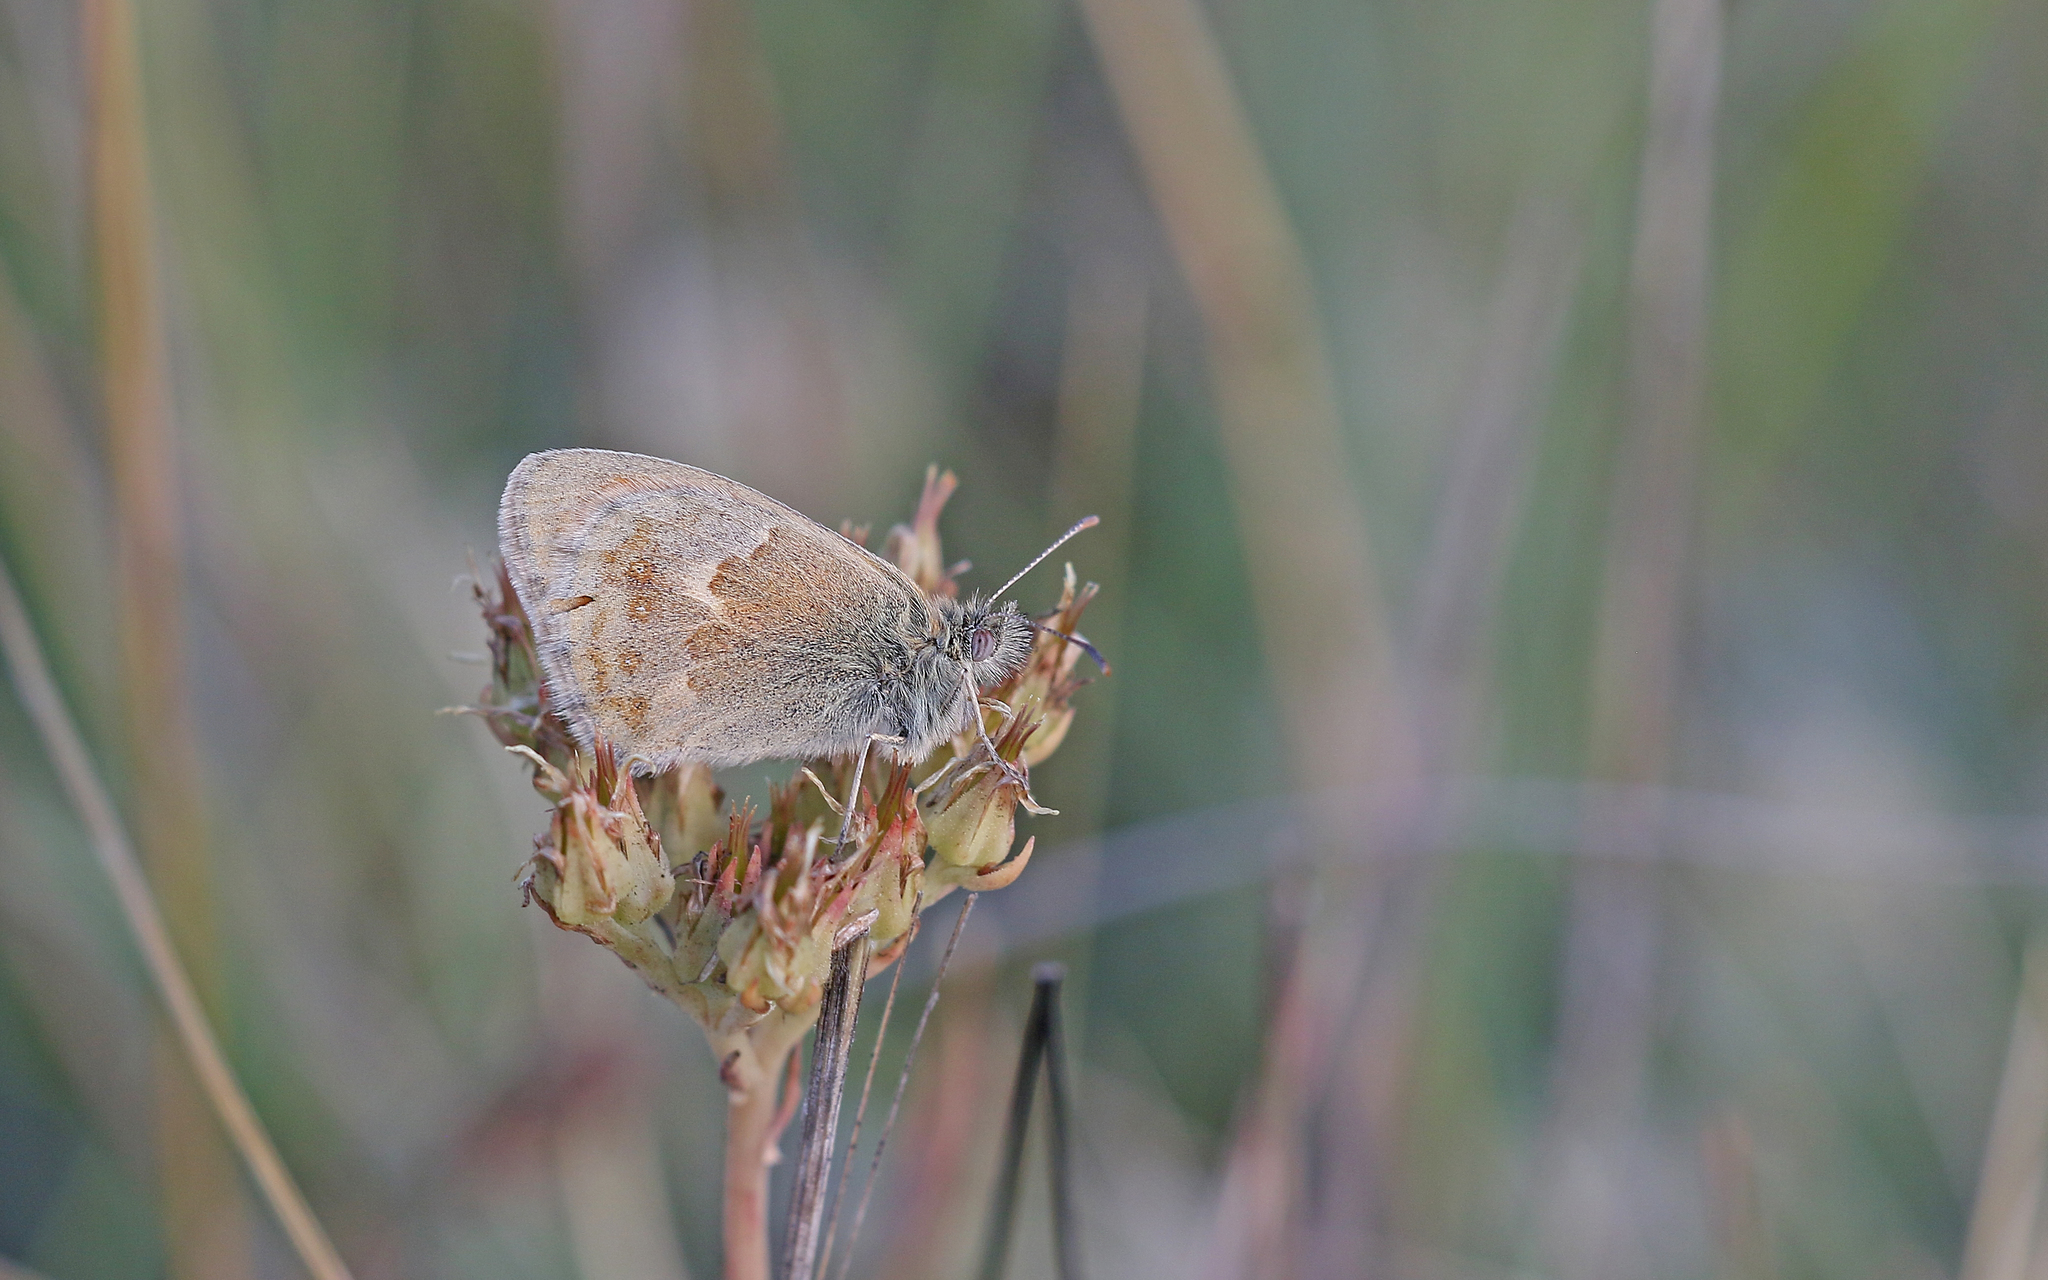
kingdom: Animalia
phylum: Arthropoda
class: Insecta
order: Lepidoptera
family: Nymphalidae
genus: Coenonympha
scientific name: Coenonympha pamphilus
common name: Small heath
